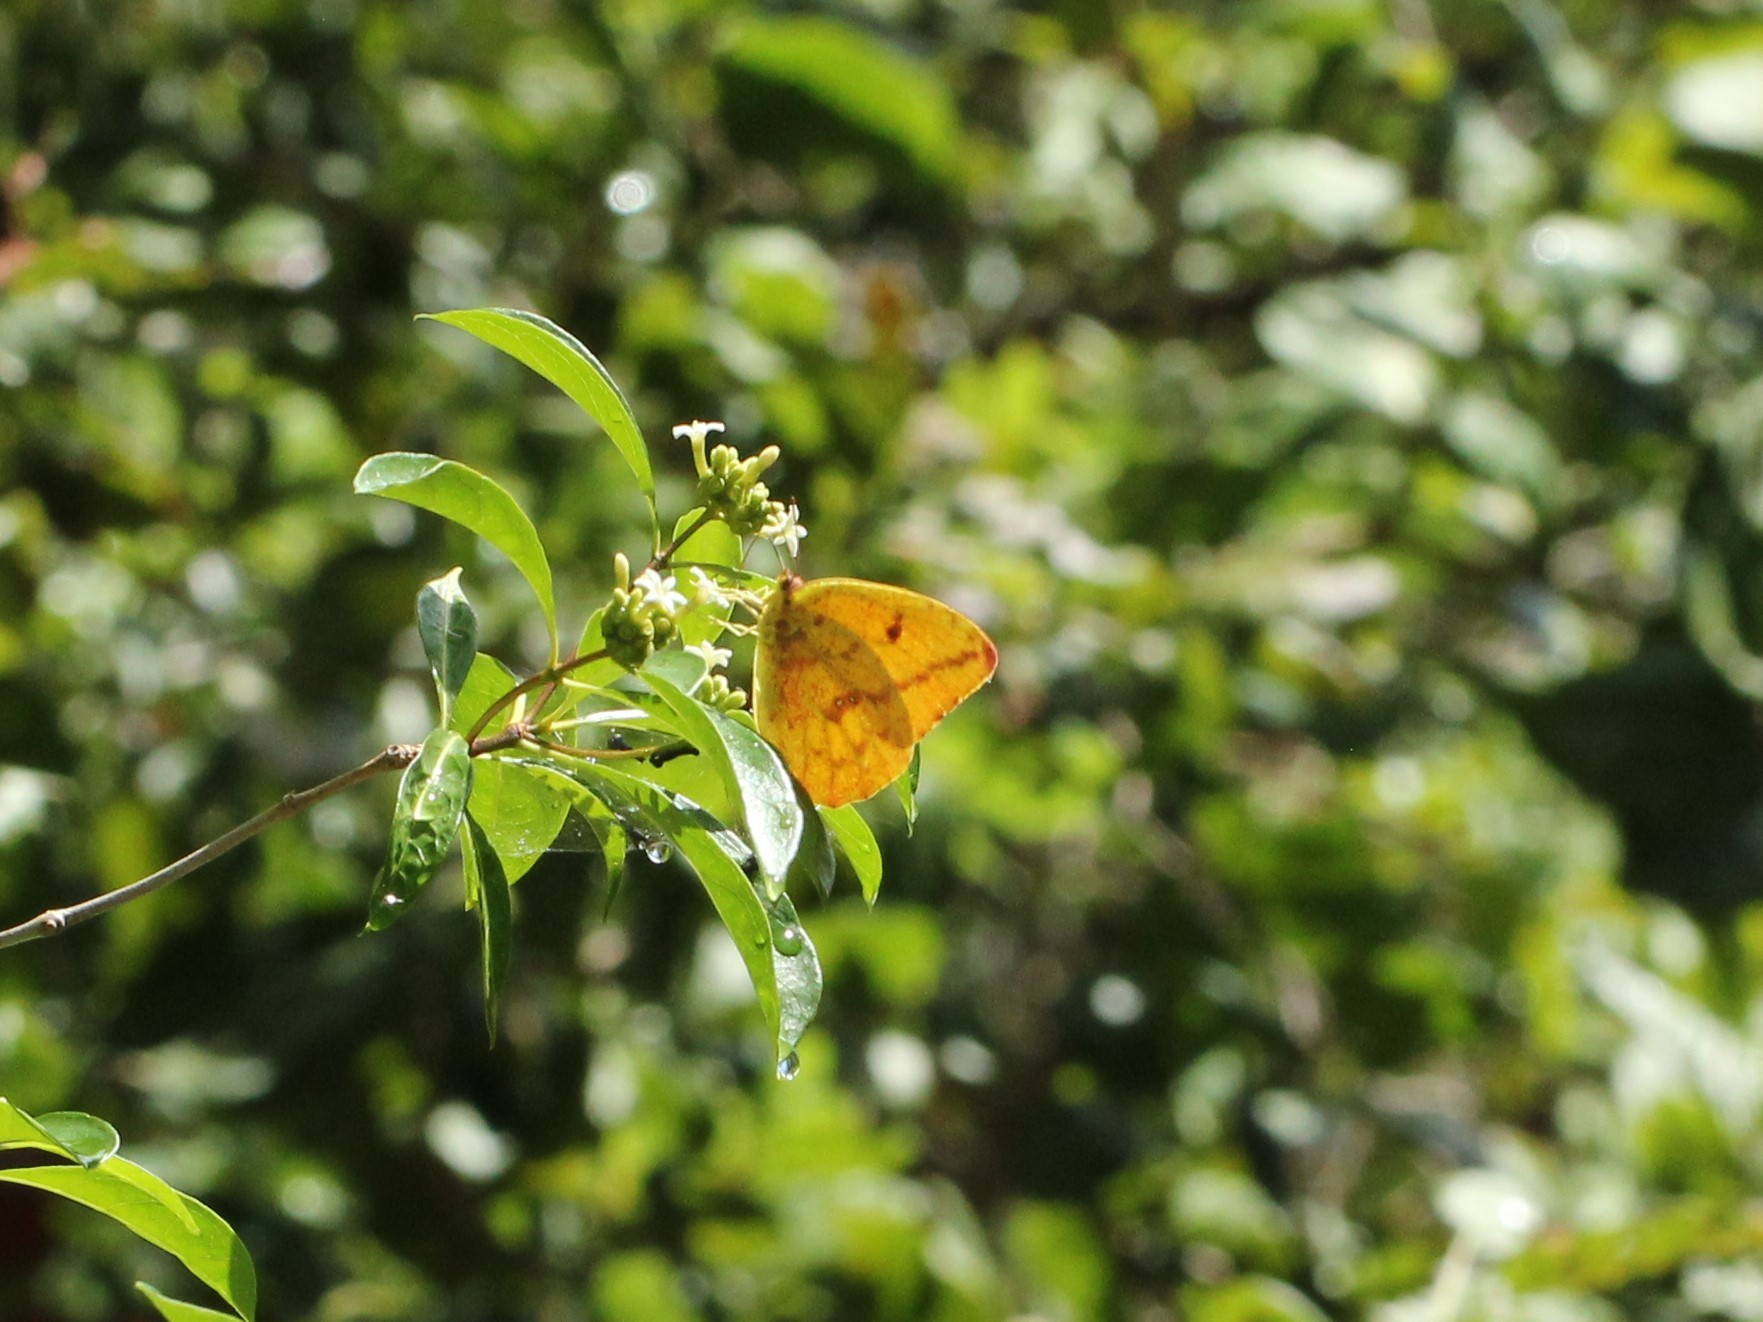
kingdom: Animalia
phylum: Arthropoda
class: Insecta
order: Lepidoptera
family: Pieridae
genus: Phoebis
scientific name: Phoebis agarithe
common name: Large orange sulphur
